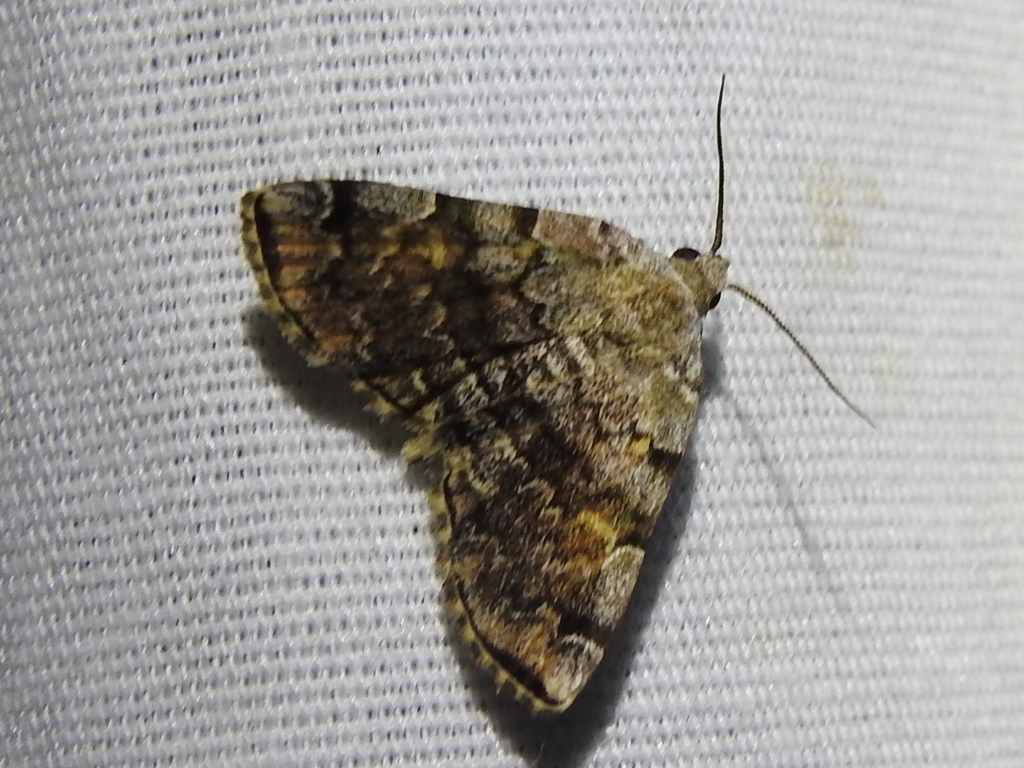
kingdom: Animalia
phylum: Arthropoda
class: Insecta
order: Lepidoptera
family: Erebidae
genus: Idia
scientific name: Idia americalis
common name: American idia moth
